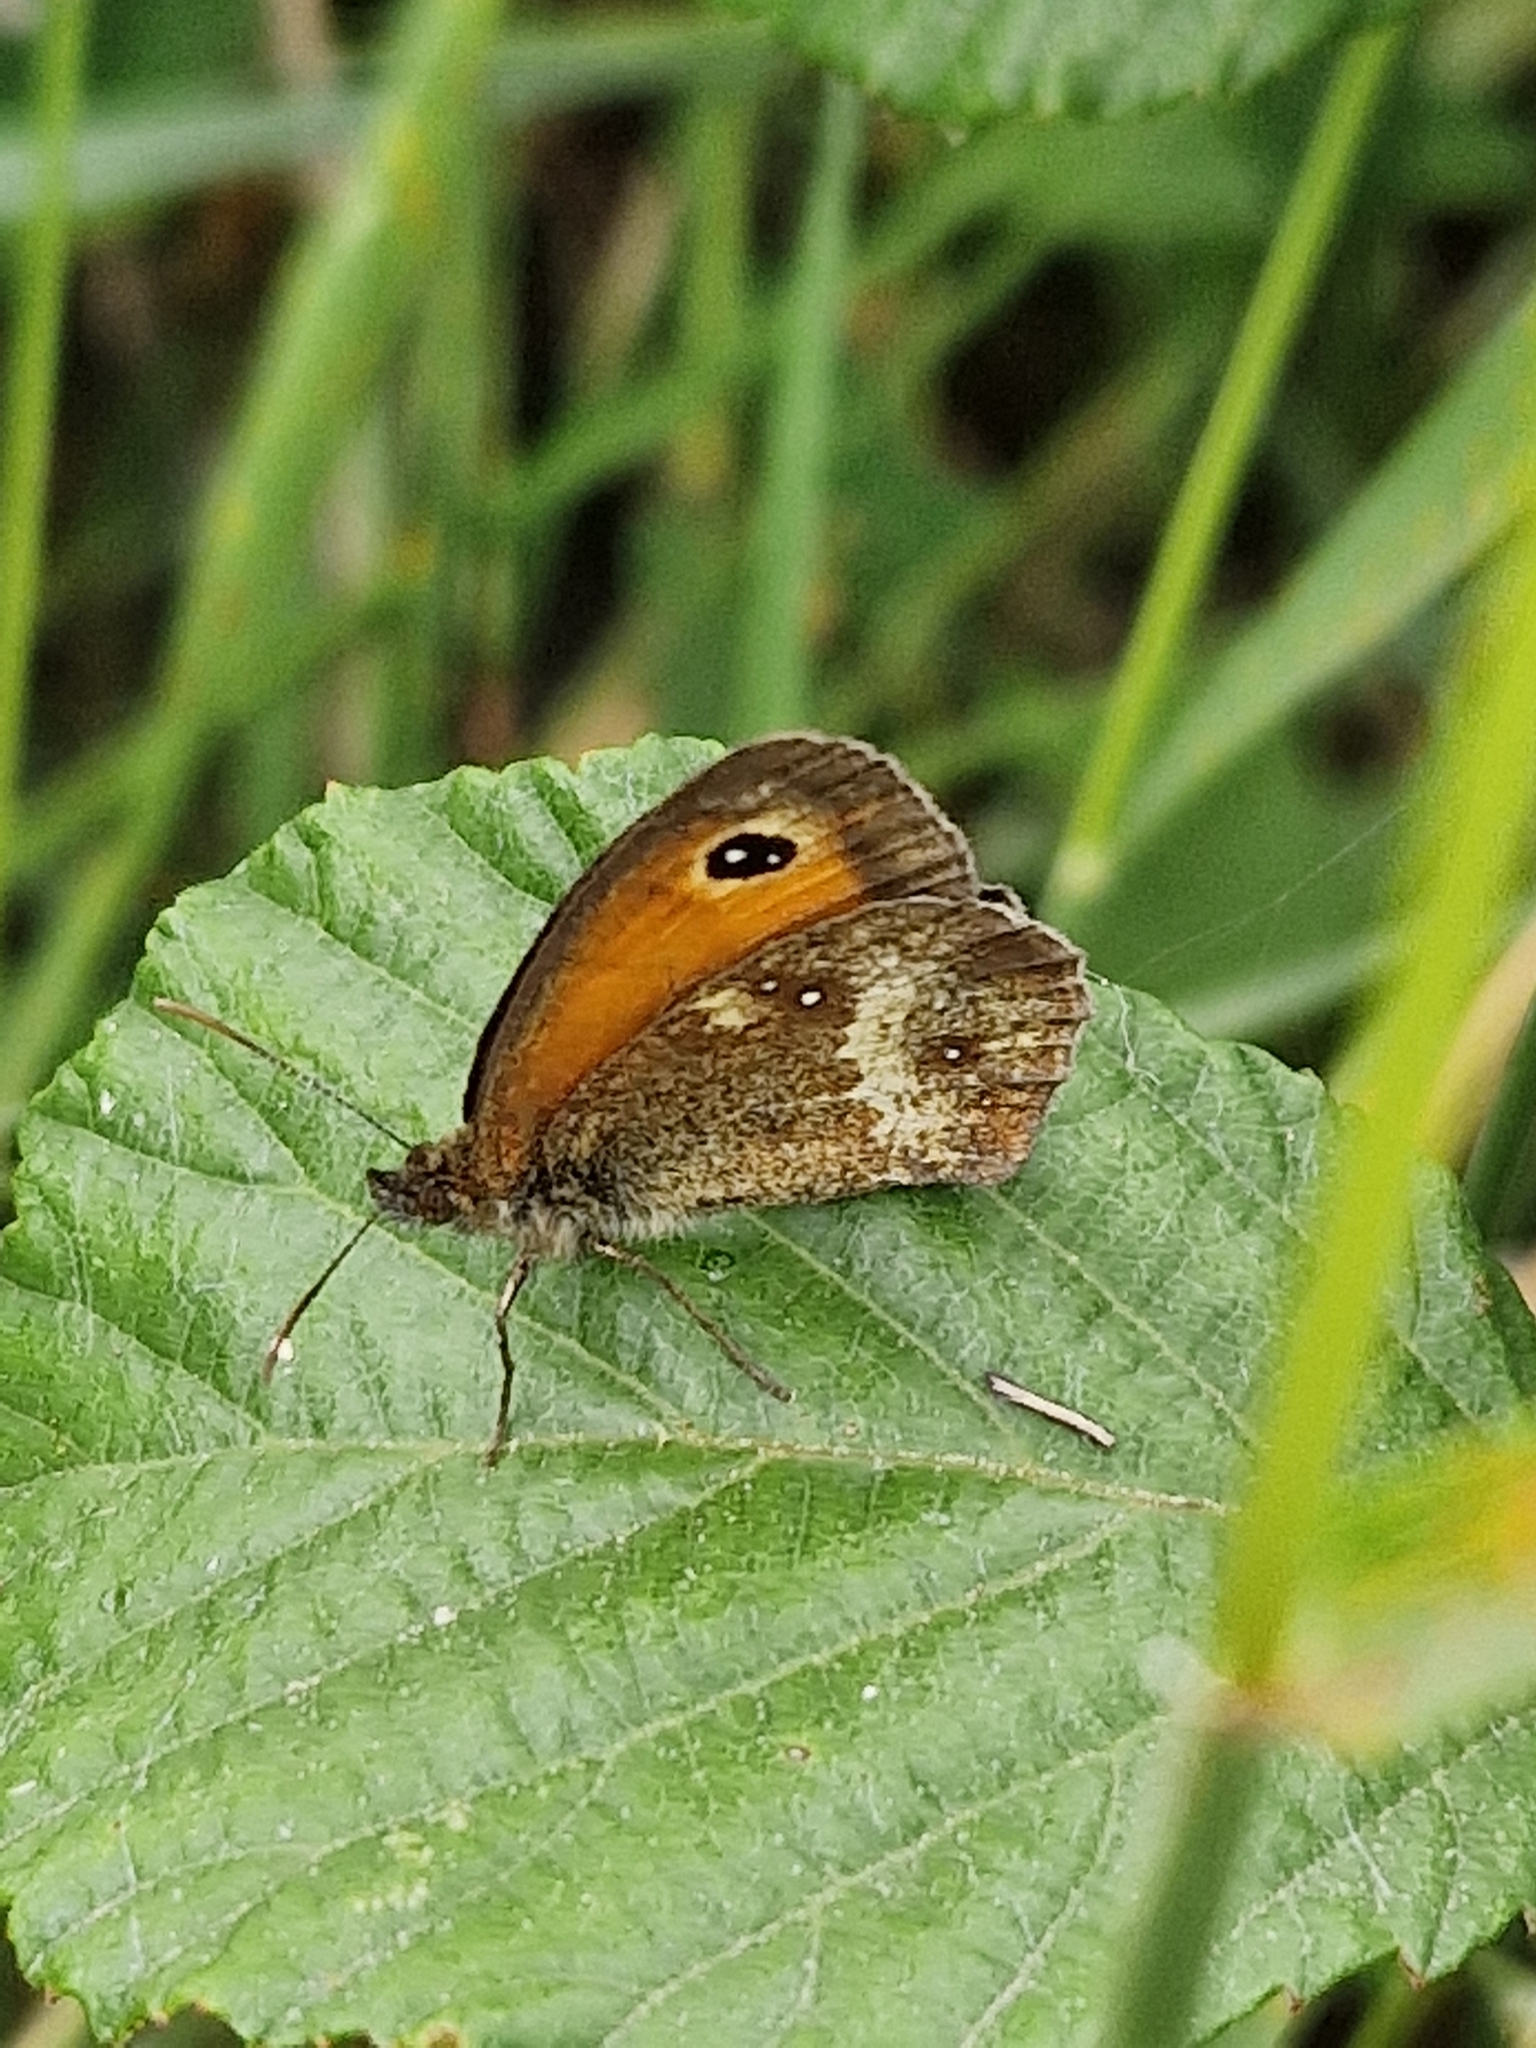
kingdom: Animalia
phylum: Arthropoda
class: Insecta
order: Lepidoptera
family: Nymphalidae
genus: Pyronia
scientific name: Pyronia tithonus
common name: Gatekeeper
